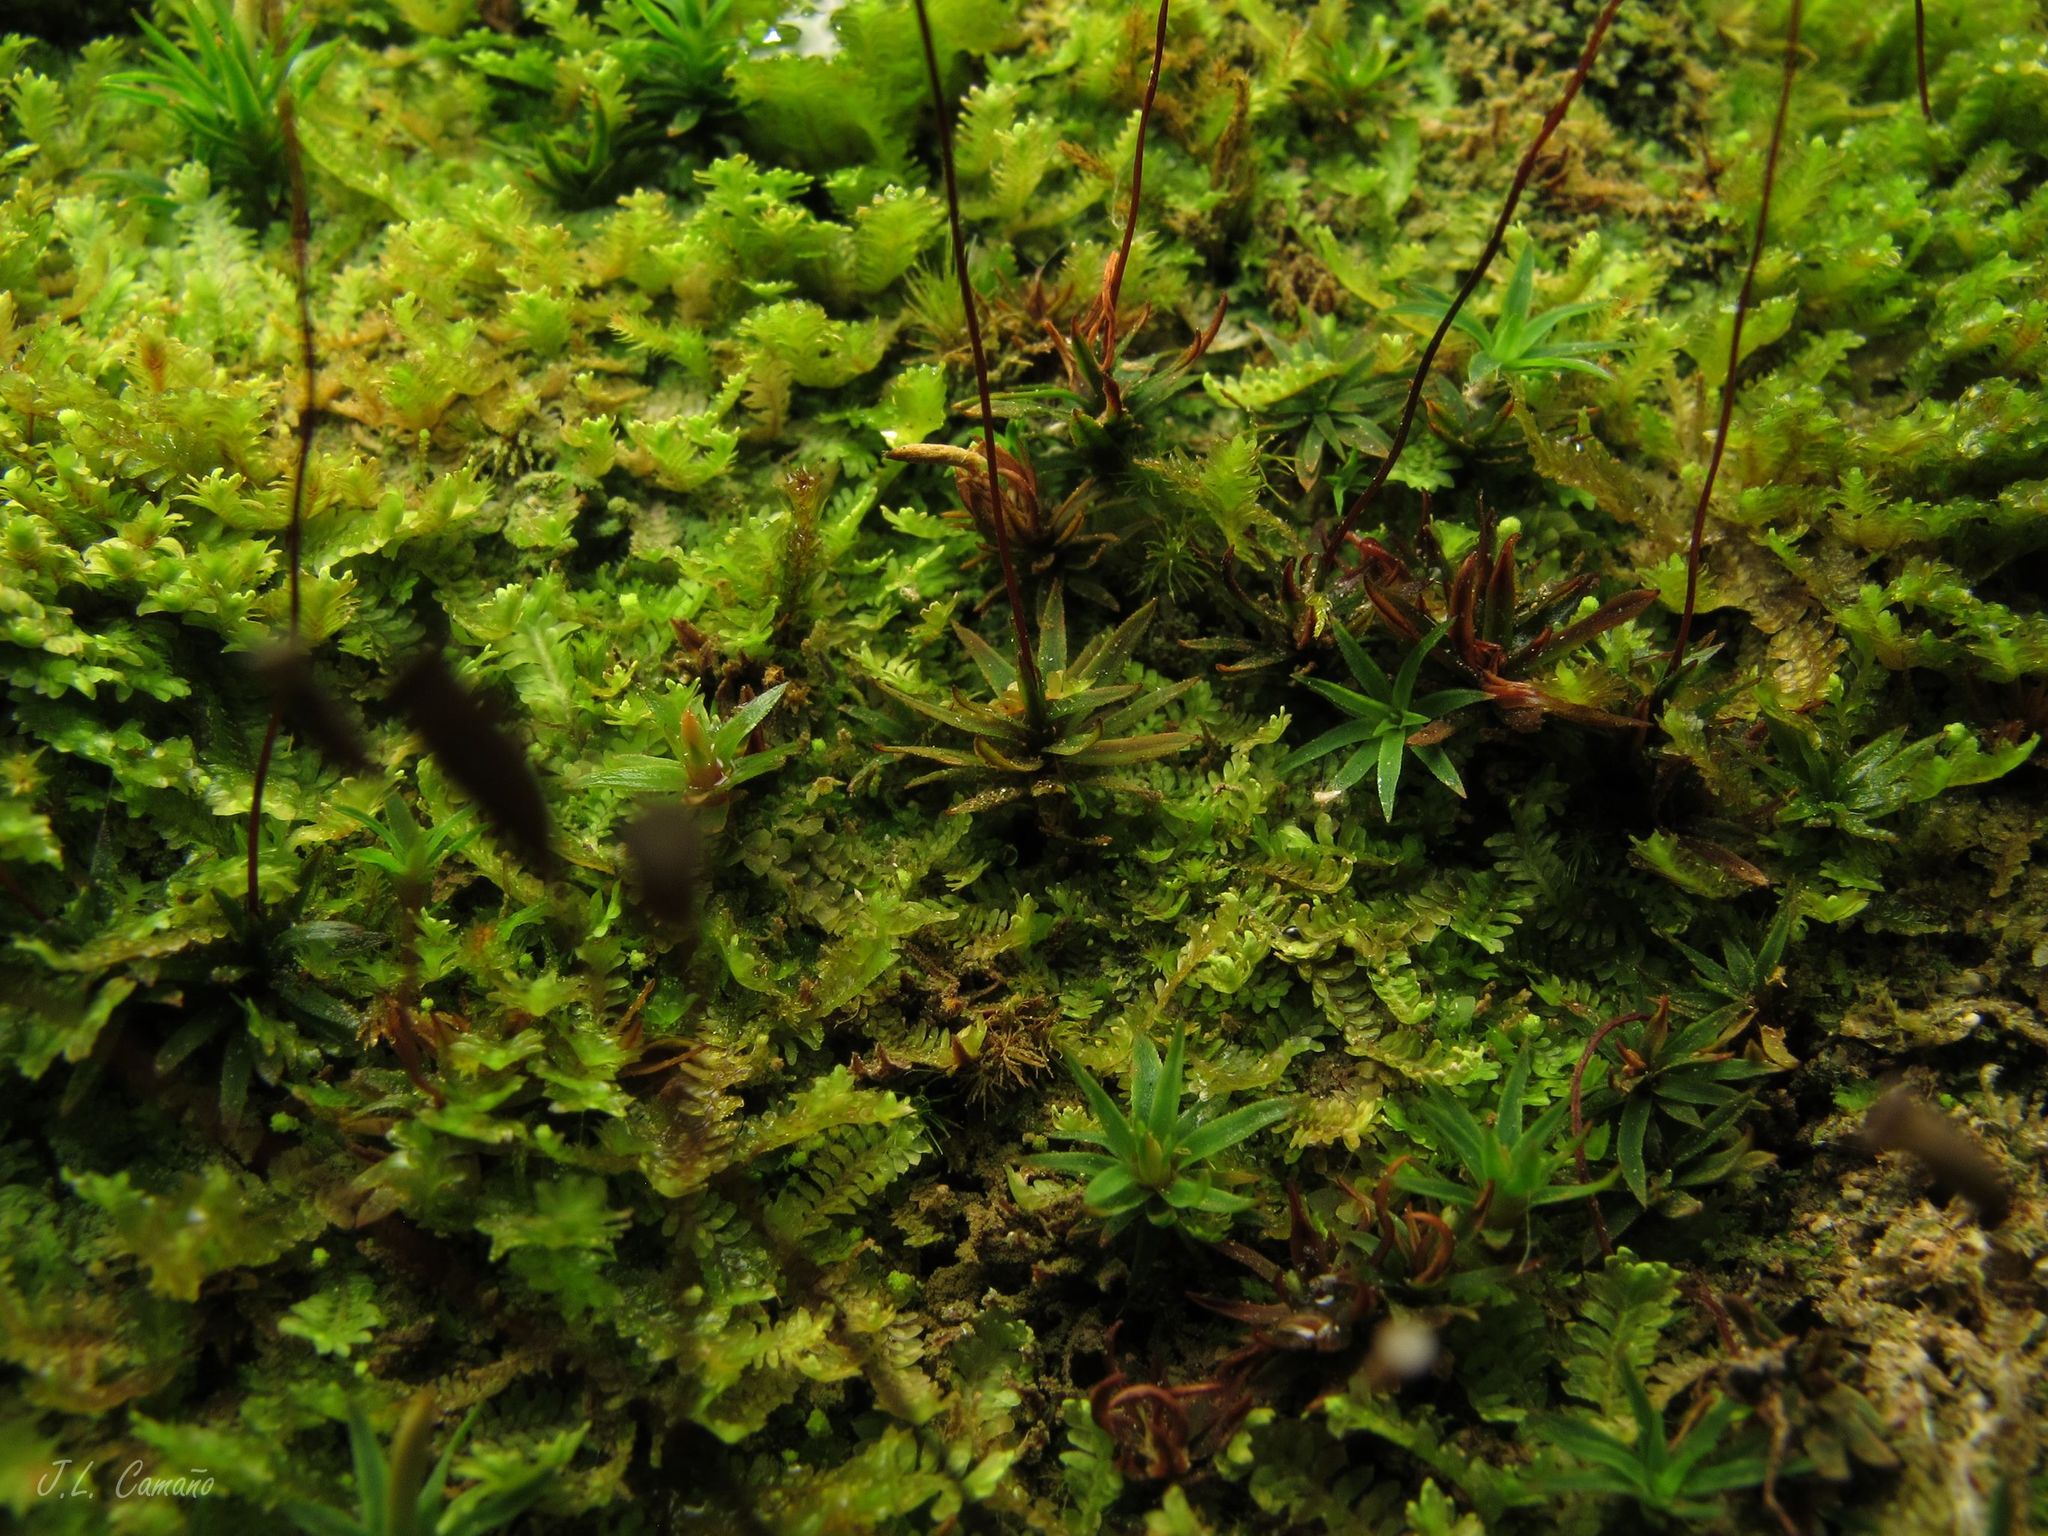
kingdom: Plantae
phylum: Bryophyta
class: Polytrichopsida
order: Polytrichales
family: Polytrichaceae
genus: Pogonatum
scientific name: Pogonatum aloides
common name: Aloe haircap
